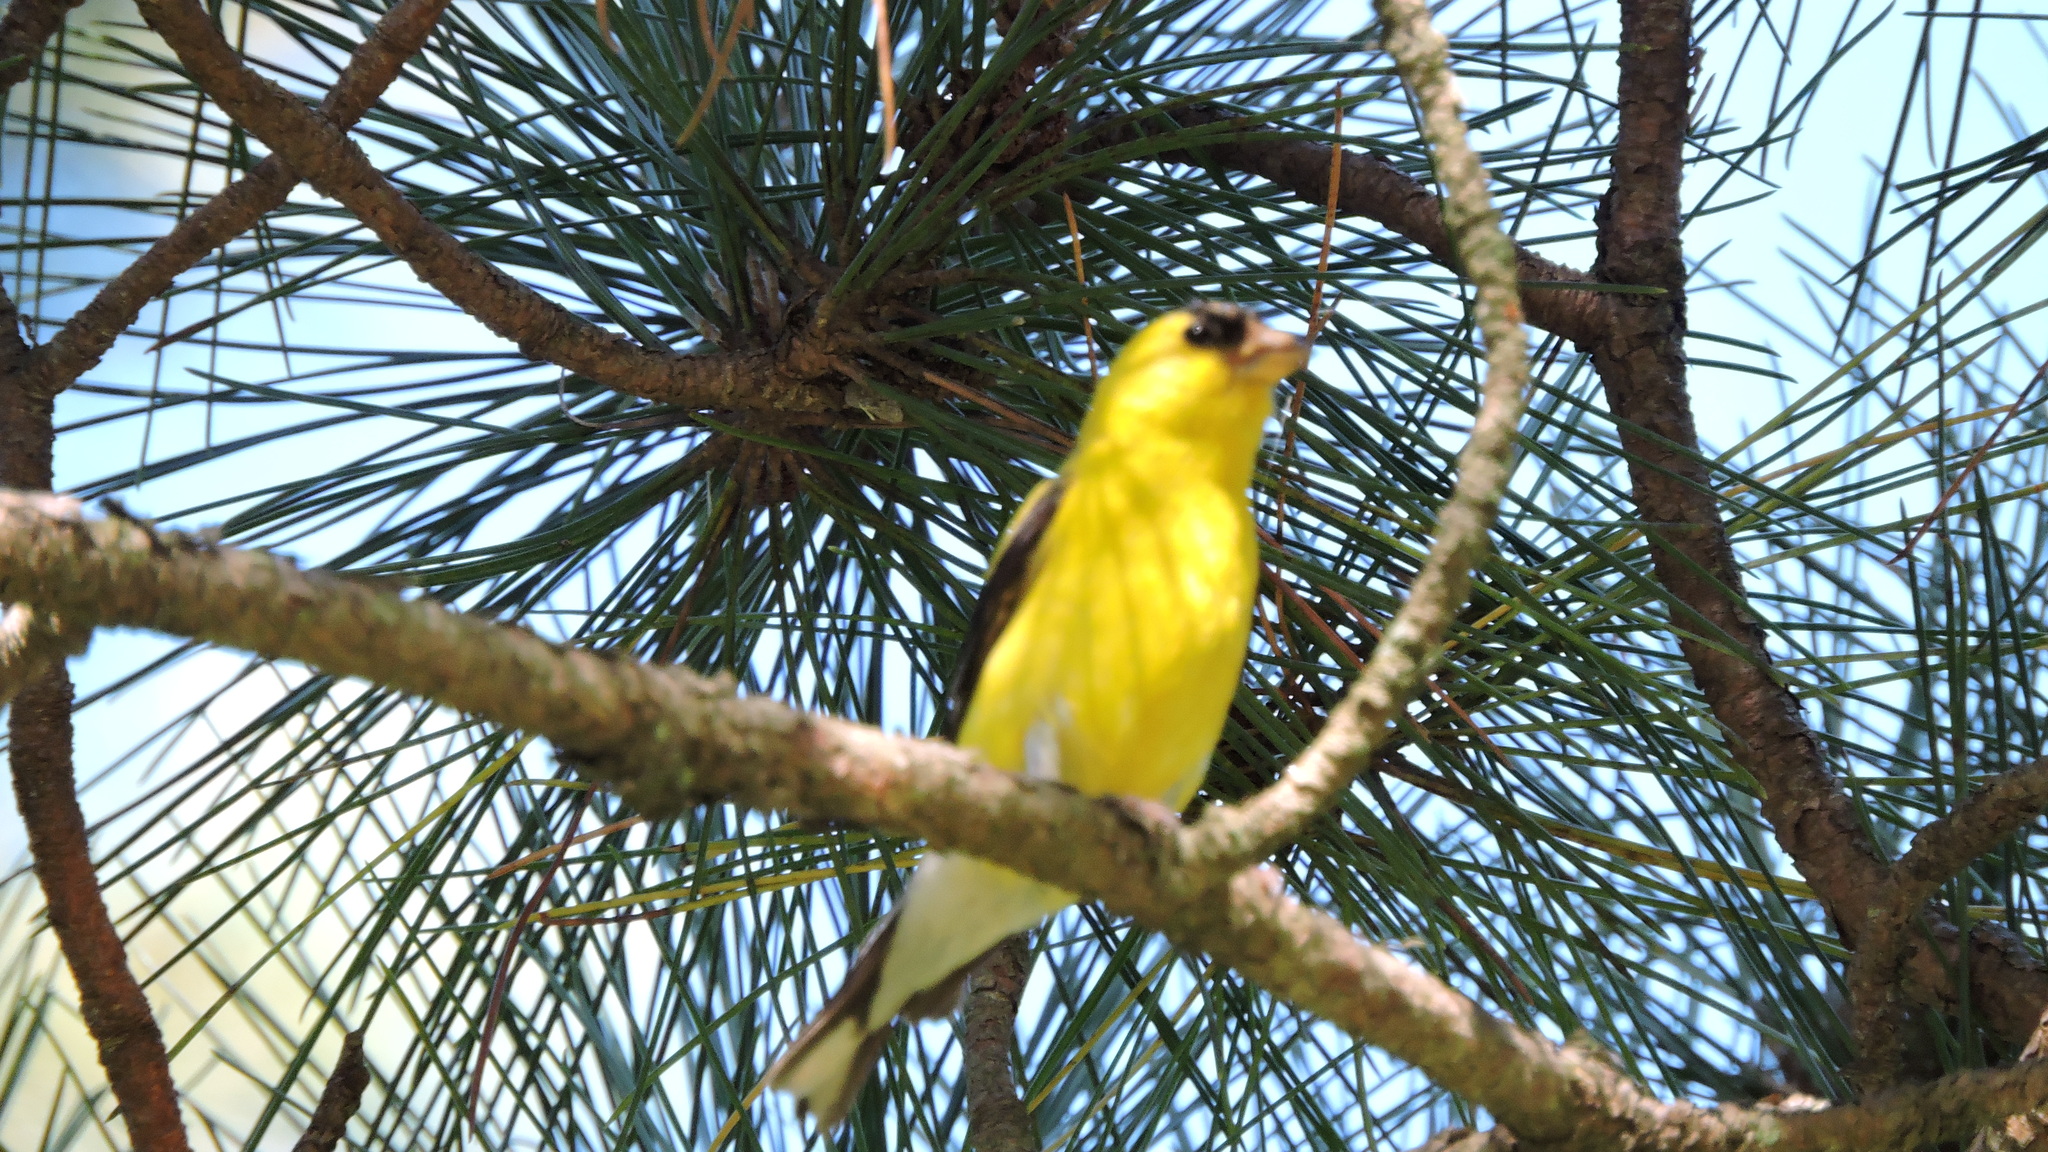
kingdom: Animalia
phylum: Chordata
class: Aves
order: Passeriformes
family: Fringillidae
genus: Spinus
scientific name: Spinus tristis
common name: American goldfinch
